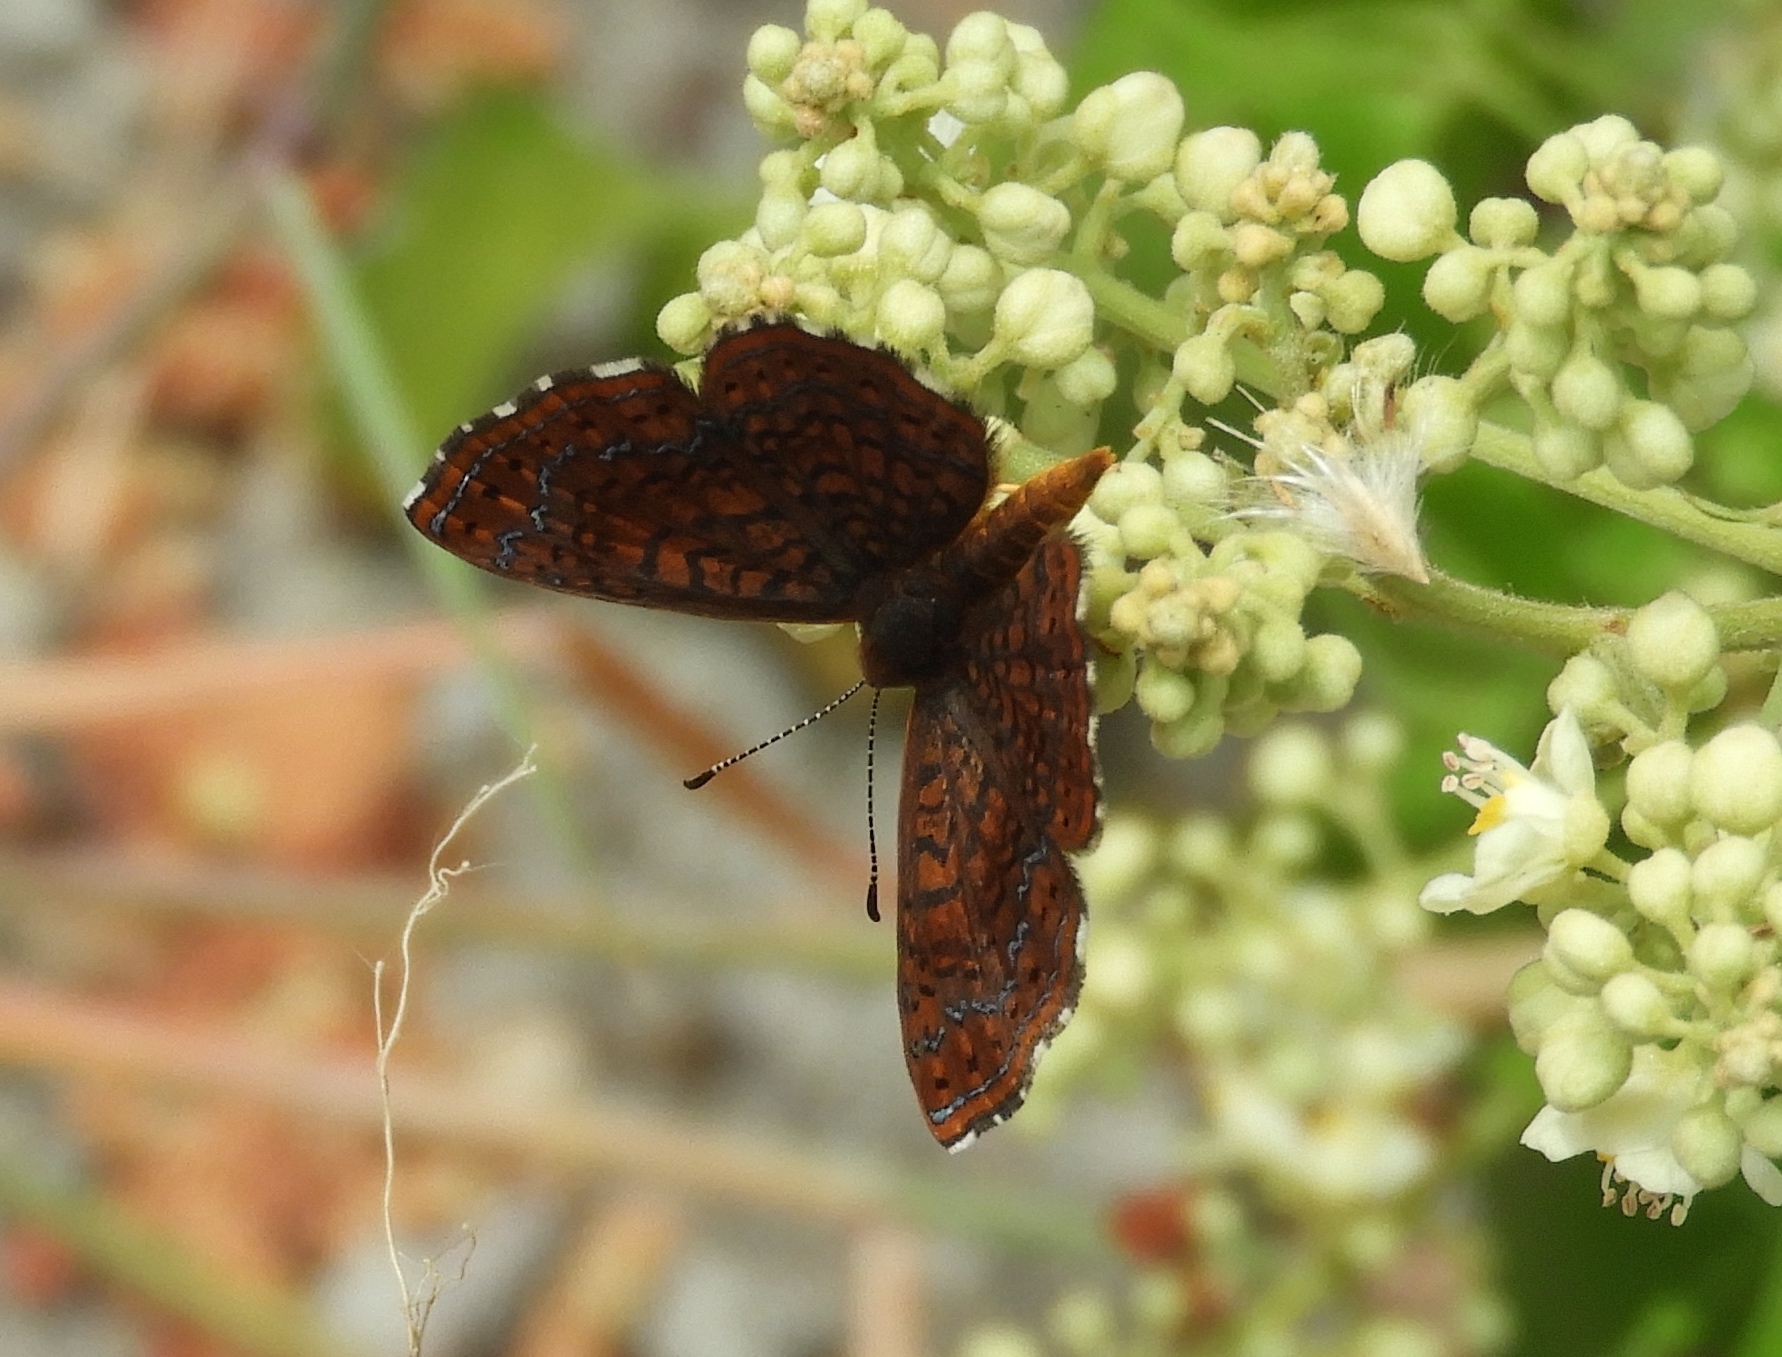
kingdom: Animalia
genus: Calephelis
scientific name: Calephelis sinaloensis
